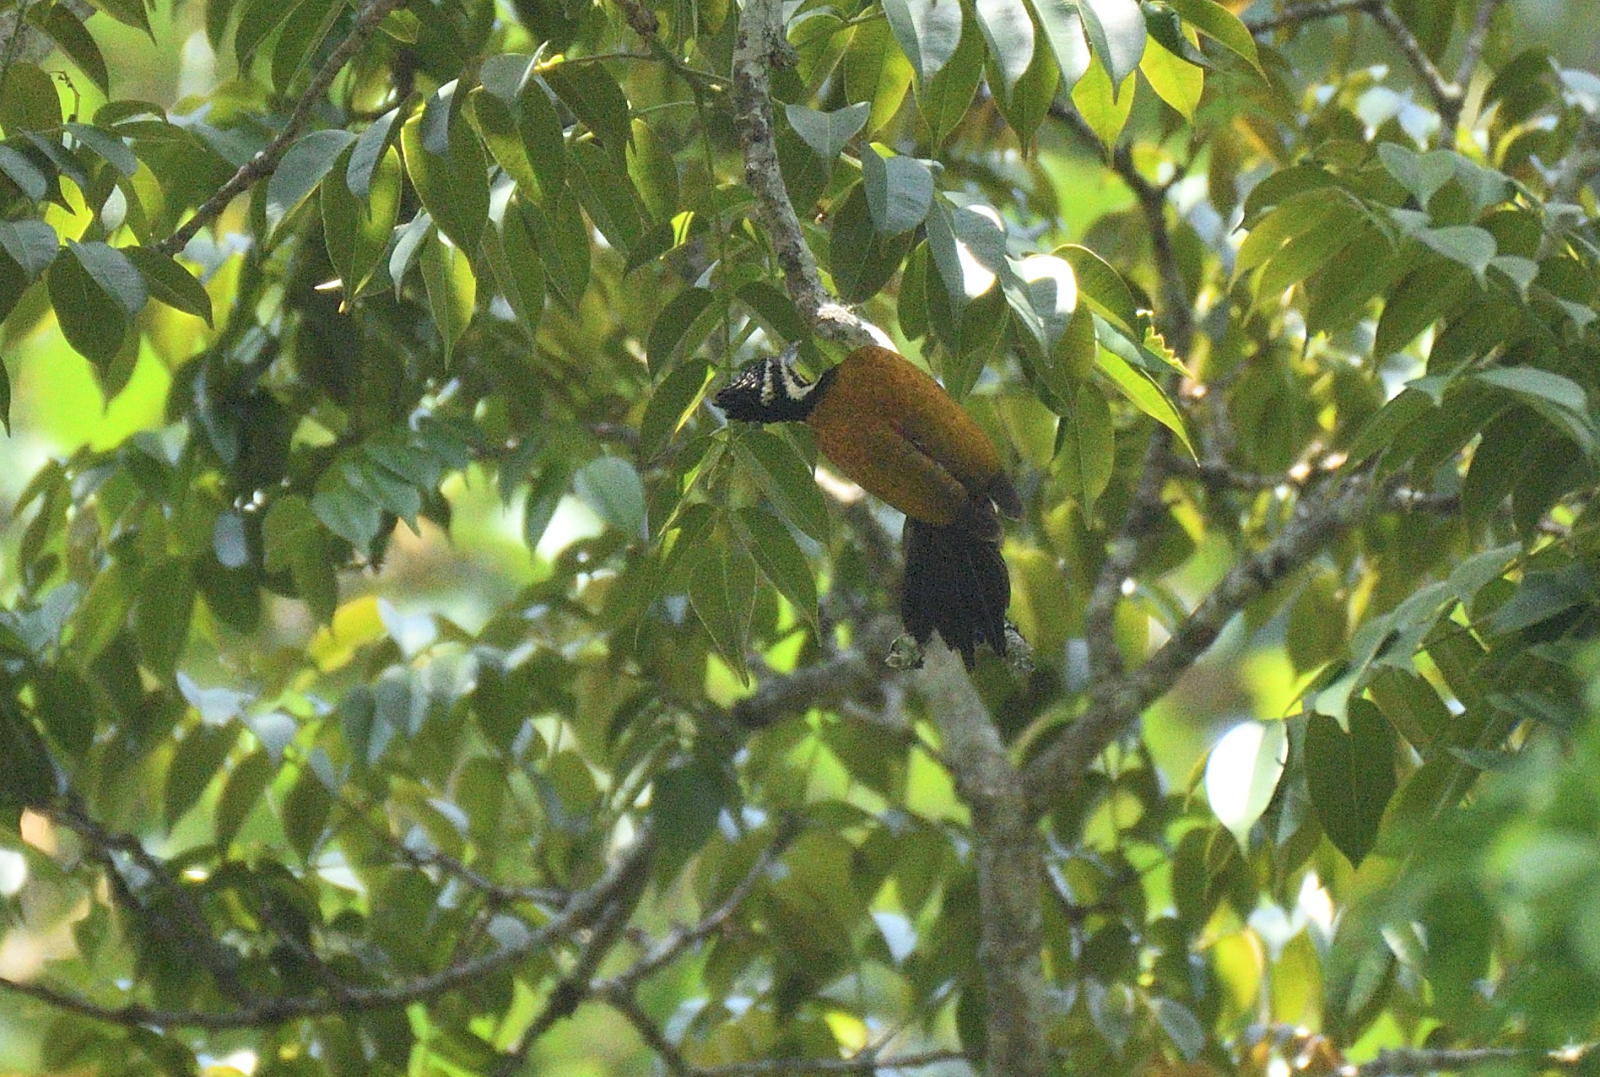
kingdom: Animalia
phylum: Chordata
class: Aves
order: Piciformes
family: Picidae
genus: Dinopium
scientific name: Dinopium javanense
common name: Common flameback
